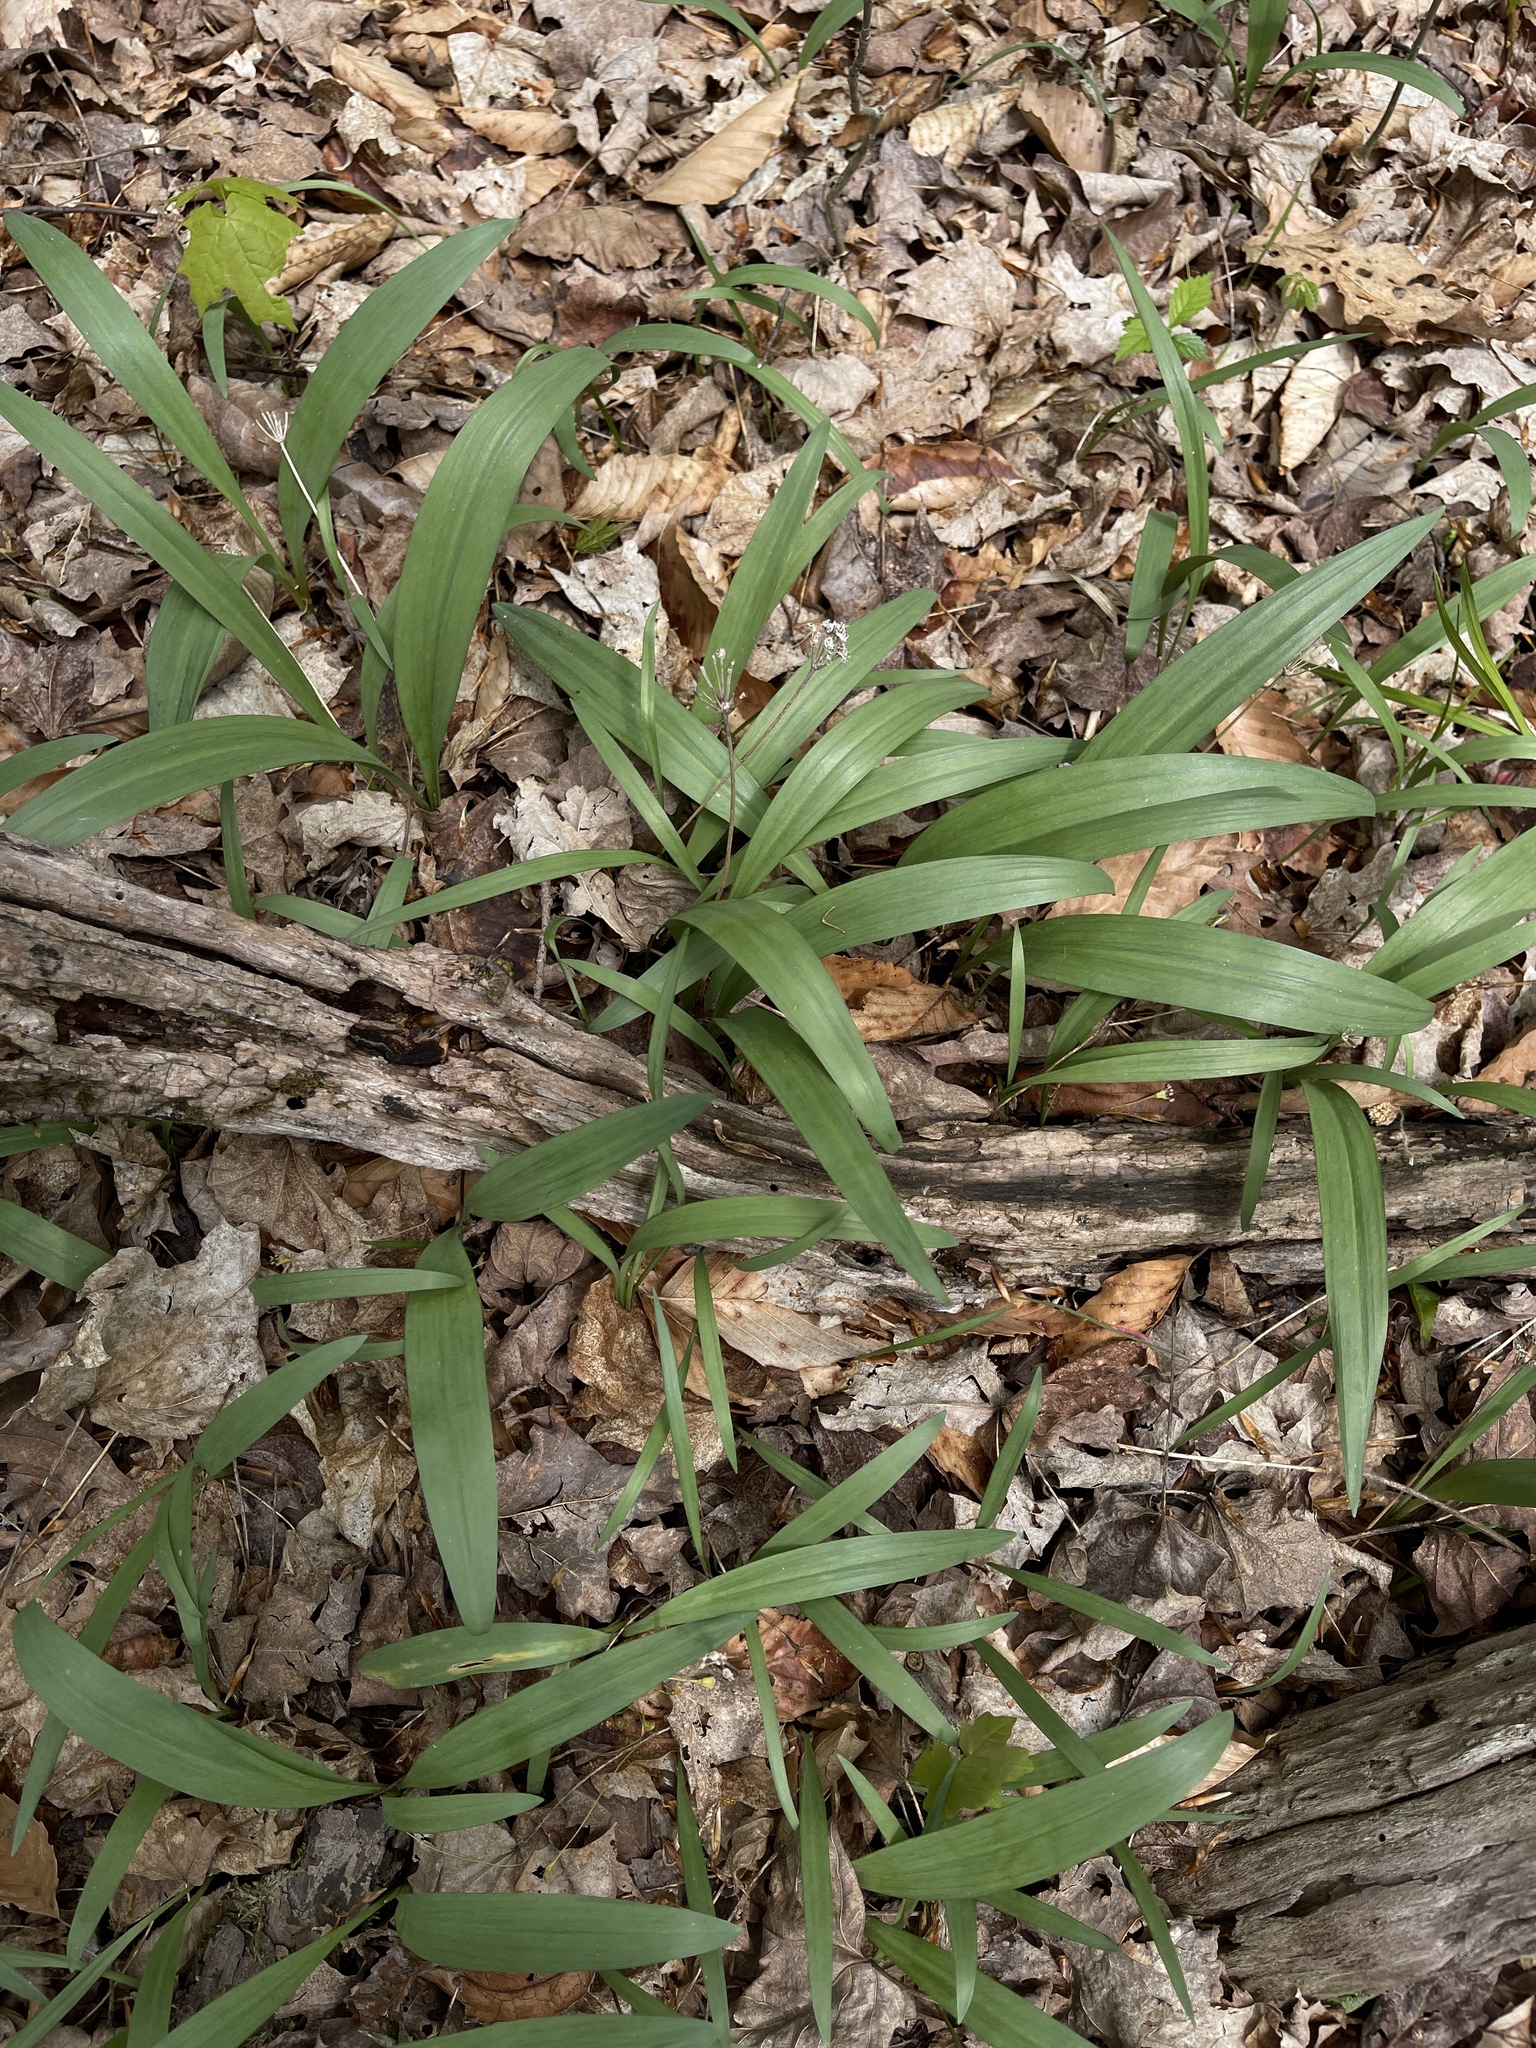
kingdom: Plantae
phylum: Tracheophyta
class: Liliopsida
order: Asparagales
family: Amaryllidaceae
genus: Allium
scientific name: Allium tricoccum
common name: Ramp
